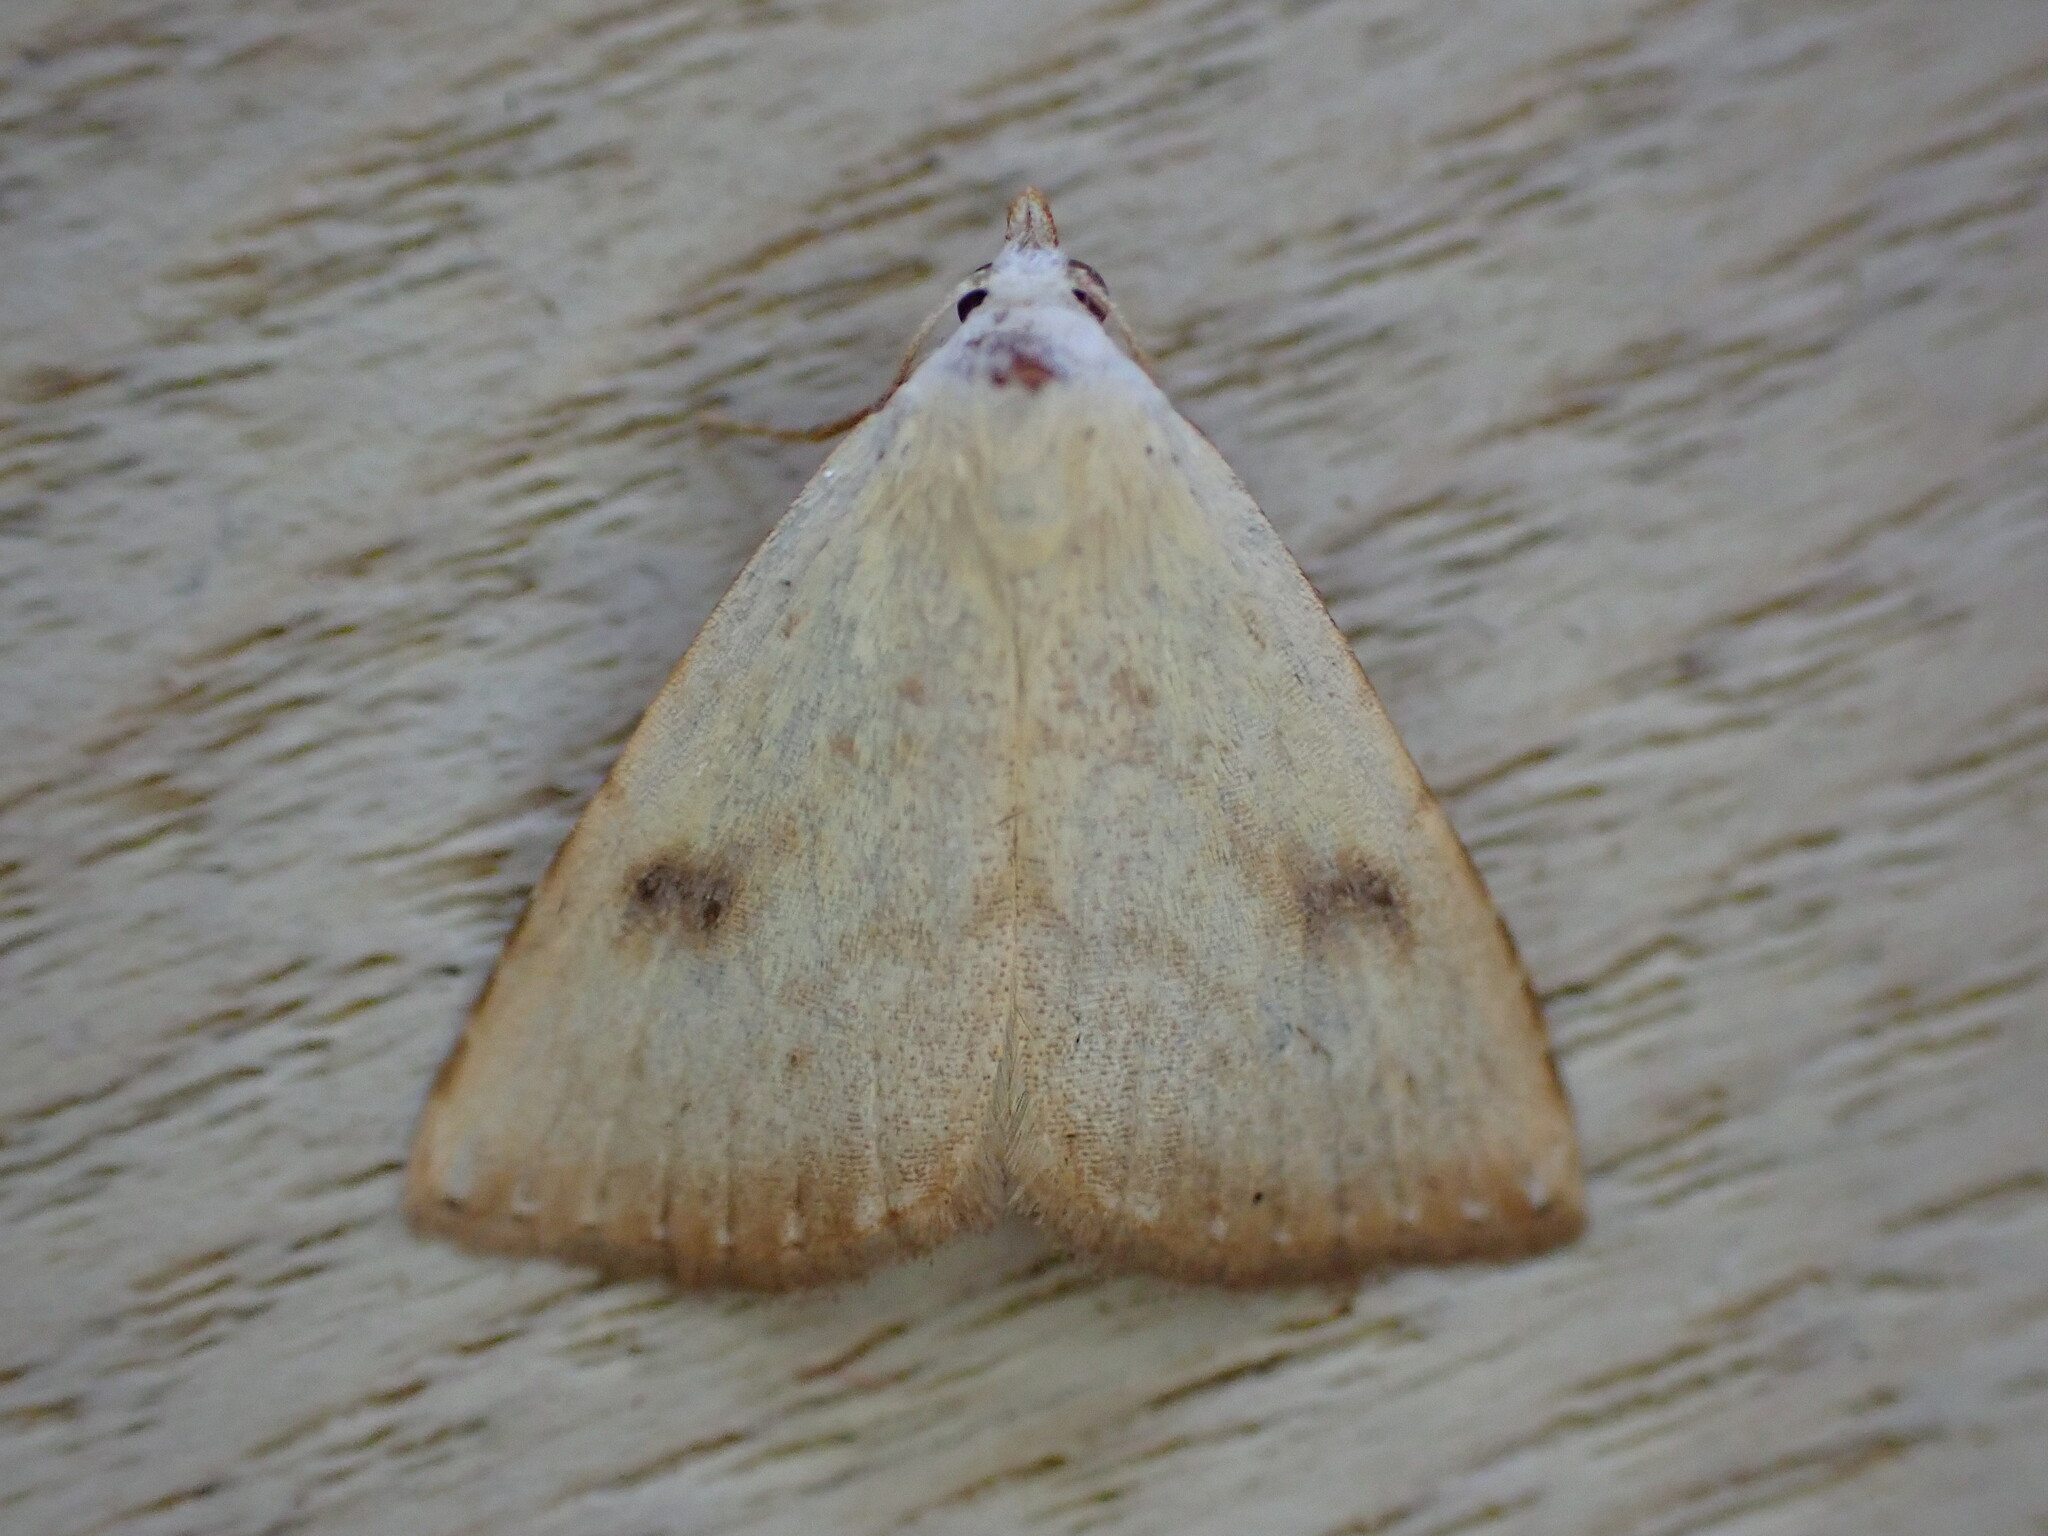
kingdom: Animalia
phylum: Arthropoda
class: Insecta
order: Lepidoptera
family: Erebidae
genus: Rivula
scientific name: Rivula sericealis
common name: Straw dot
